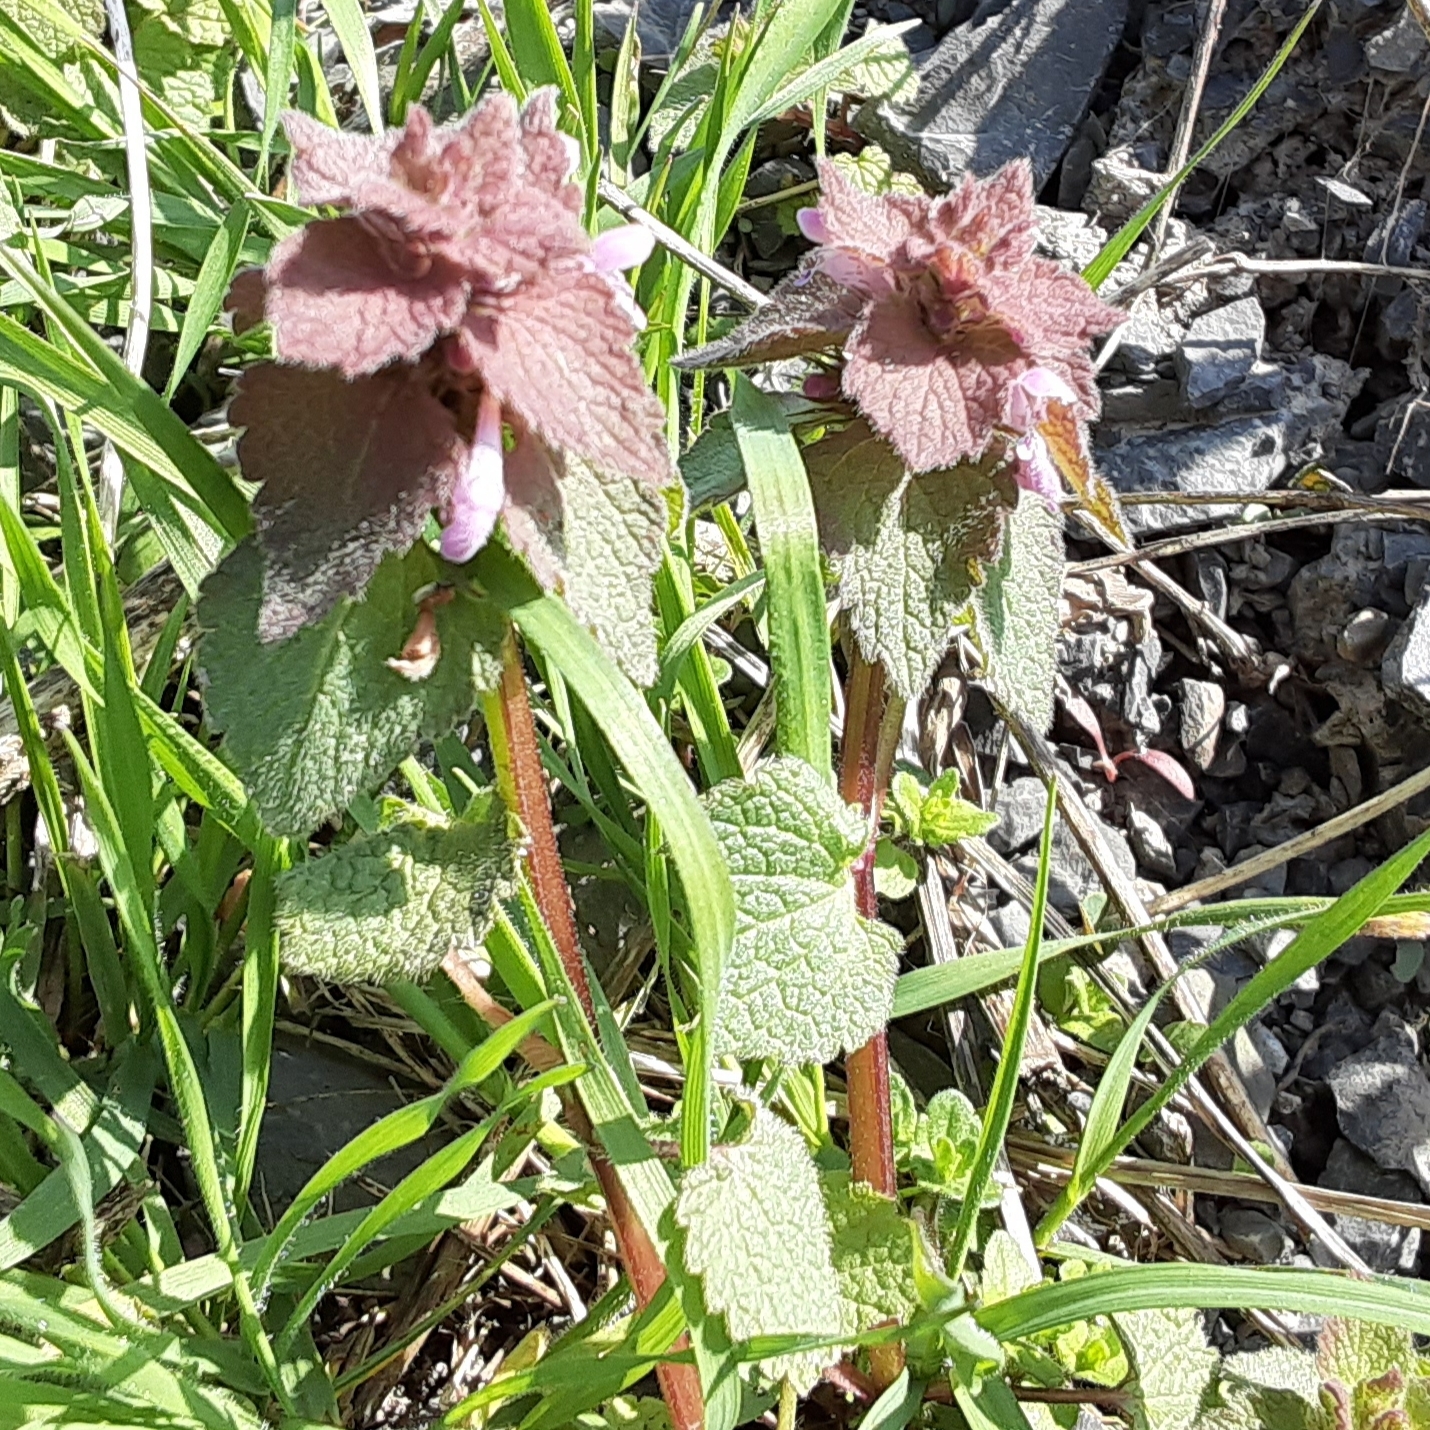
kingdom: Plantae
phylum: Tracheophyta
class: Magnoliopsida
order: Lamiales
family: Lamiaceae
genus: Lamium
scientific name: Lamium purpureum
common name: Red dead-nettle
